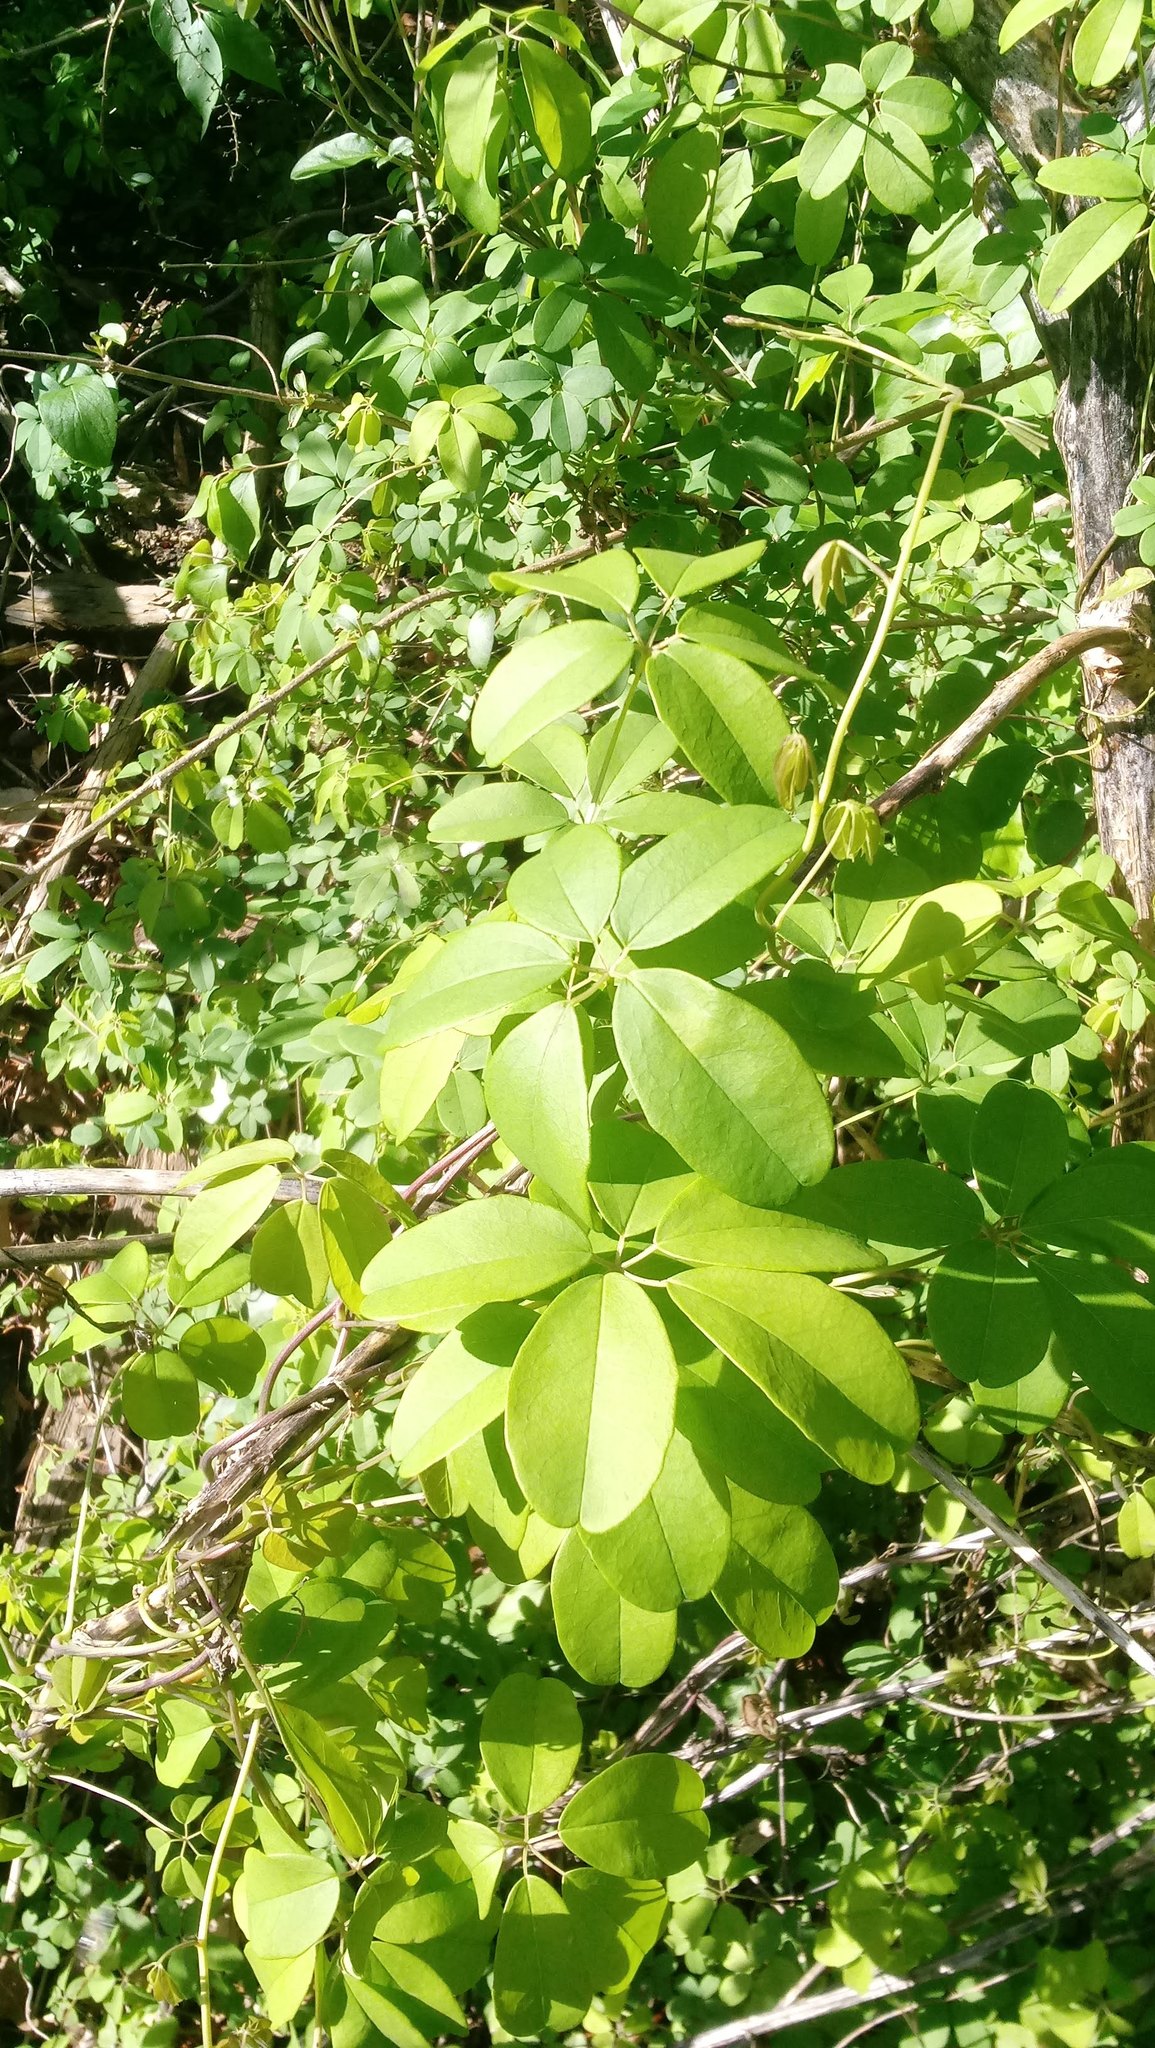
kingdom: Plantae
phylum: Tracheophyta
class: Magnoliopsida
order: Ranunculales
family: Lardizabalaceae
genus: Akebia
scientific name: Akebia quinata
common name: Five-leaf akebia
